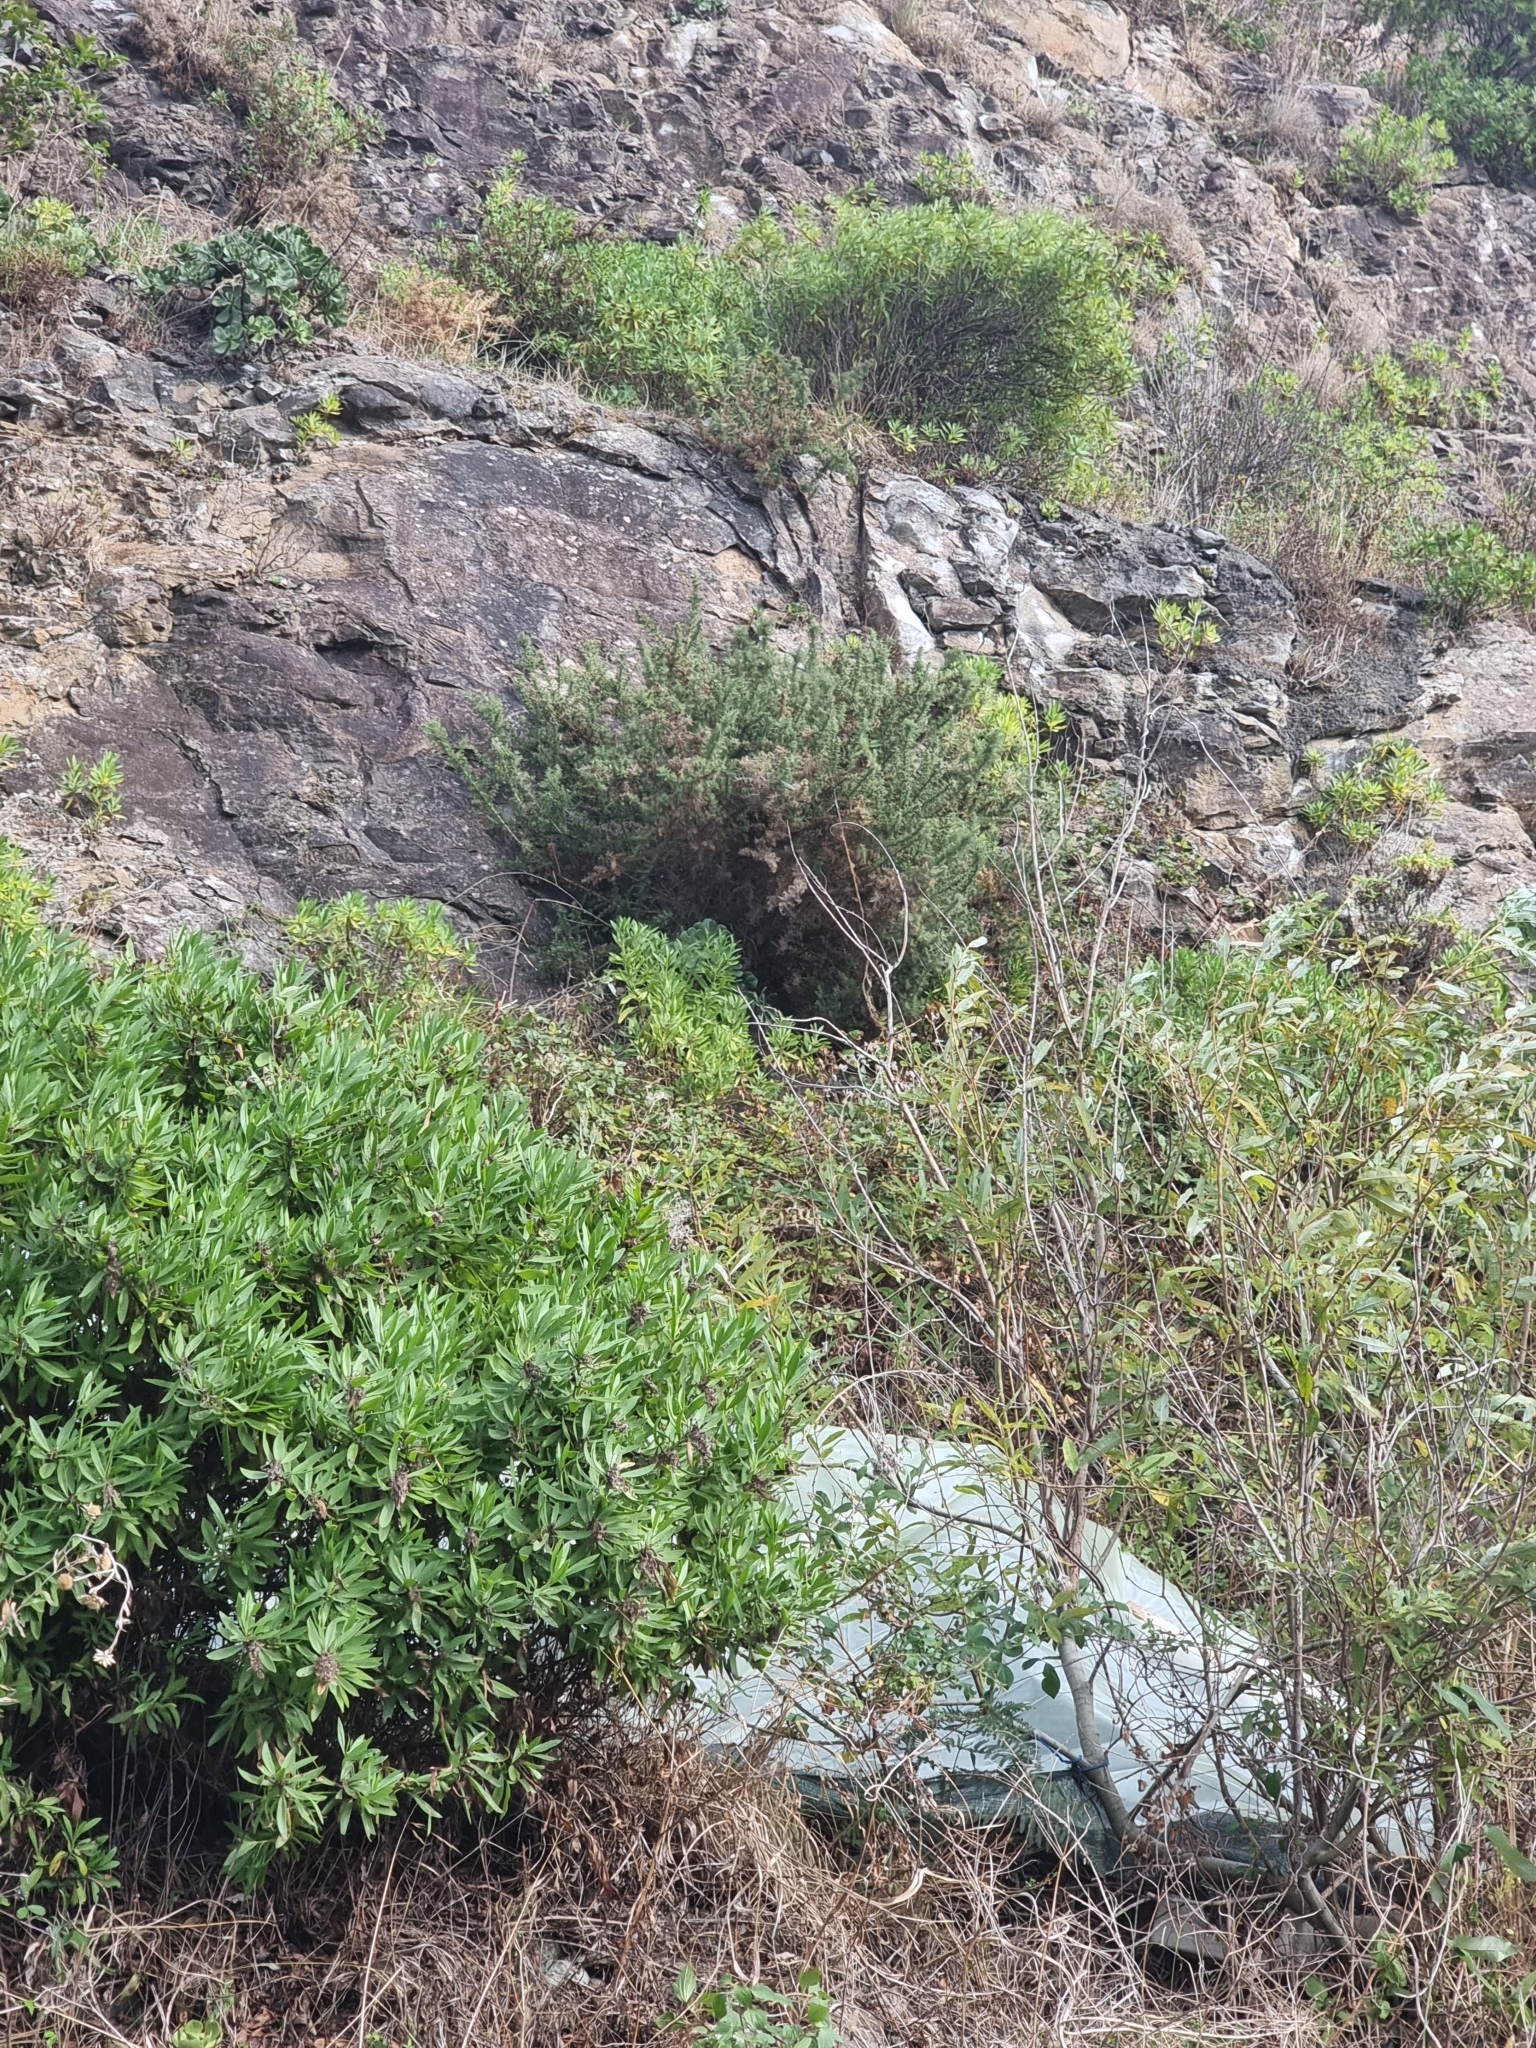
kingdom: Plantae
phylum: Tracheophyta
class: Magnoliopsida
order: Fabales
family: Fabaceae
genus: Ulex
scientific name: Ulex europaeus
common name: Common gorse
